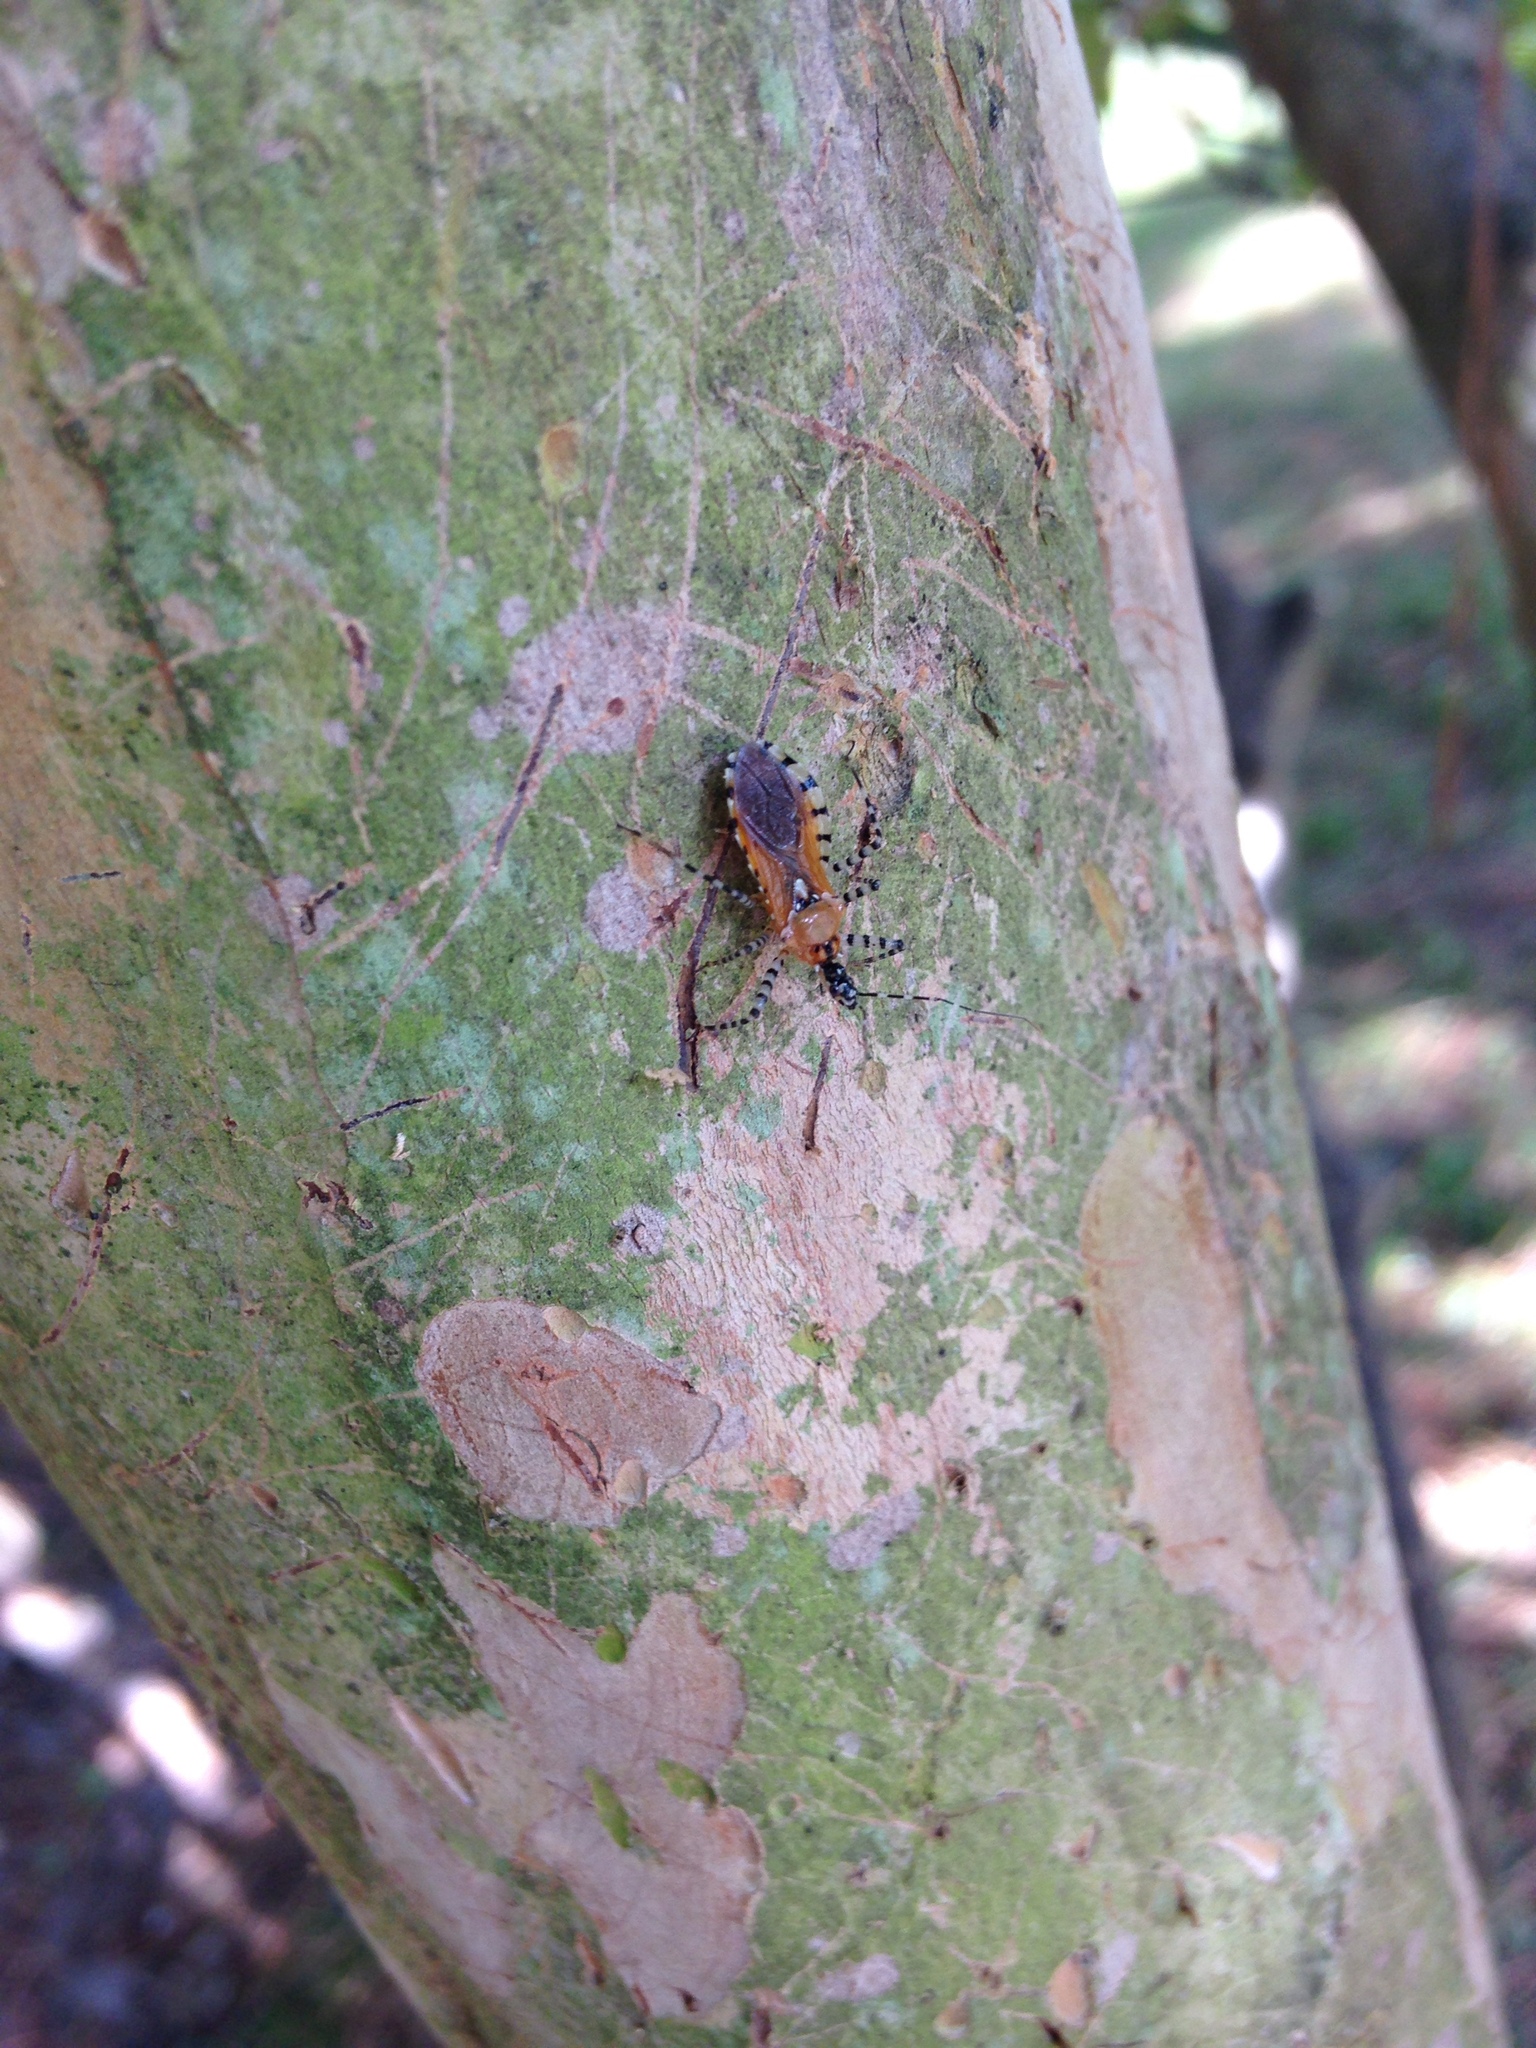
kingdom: Animalia
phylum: Arthropoda
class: Insecta
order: Hemiptera
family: Reduviidae
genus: Pselliopus
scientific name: Pselliopus cinctus
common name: Ringed assassin bug
